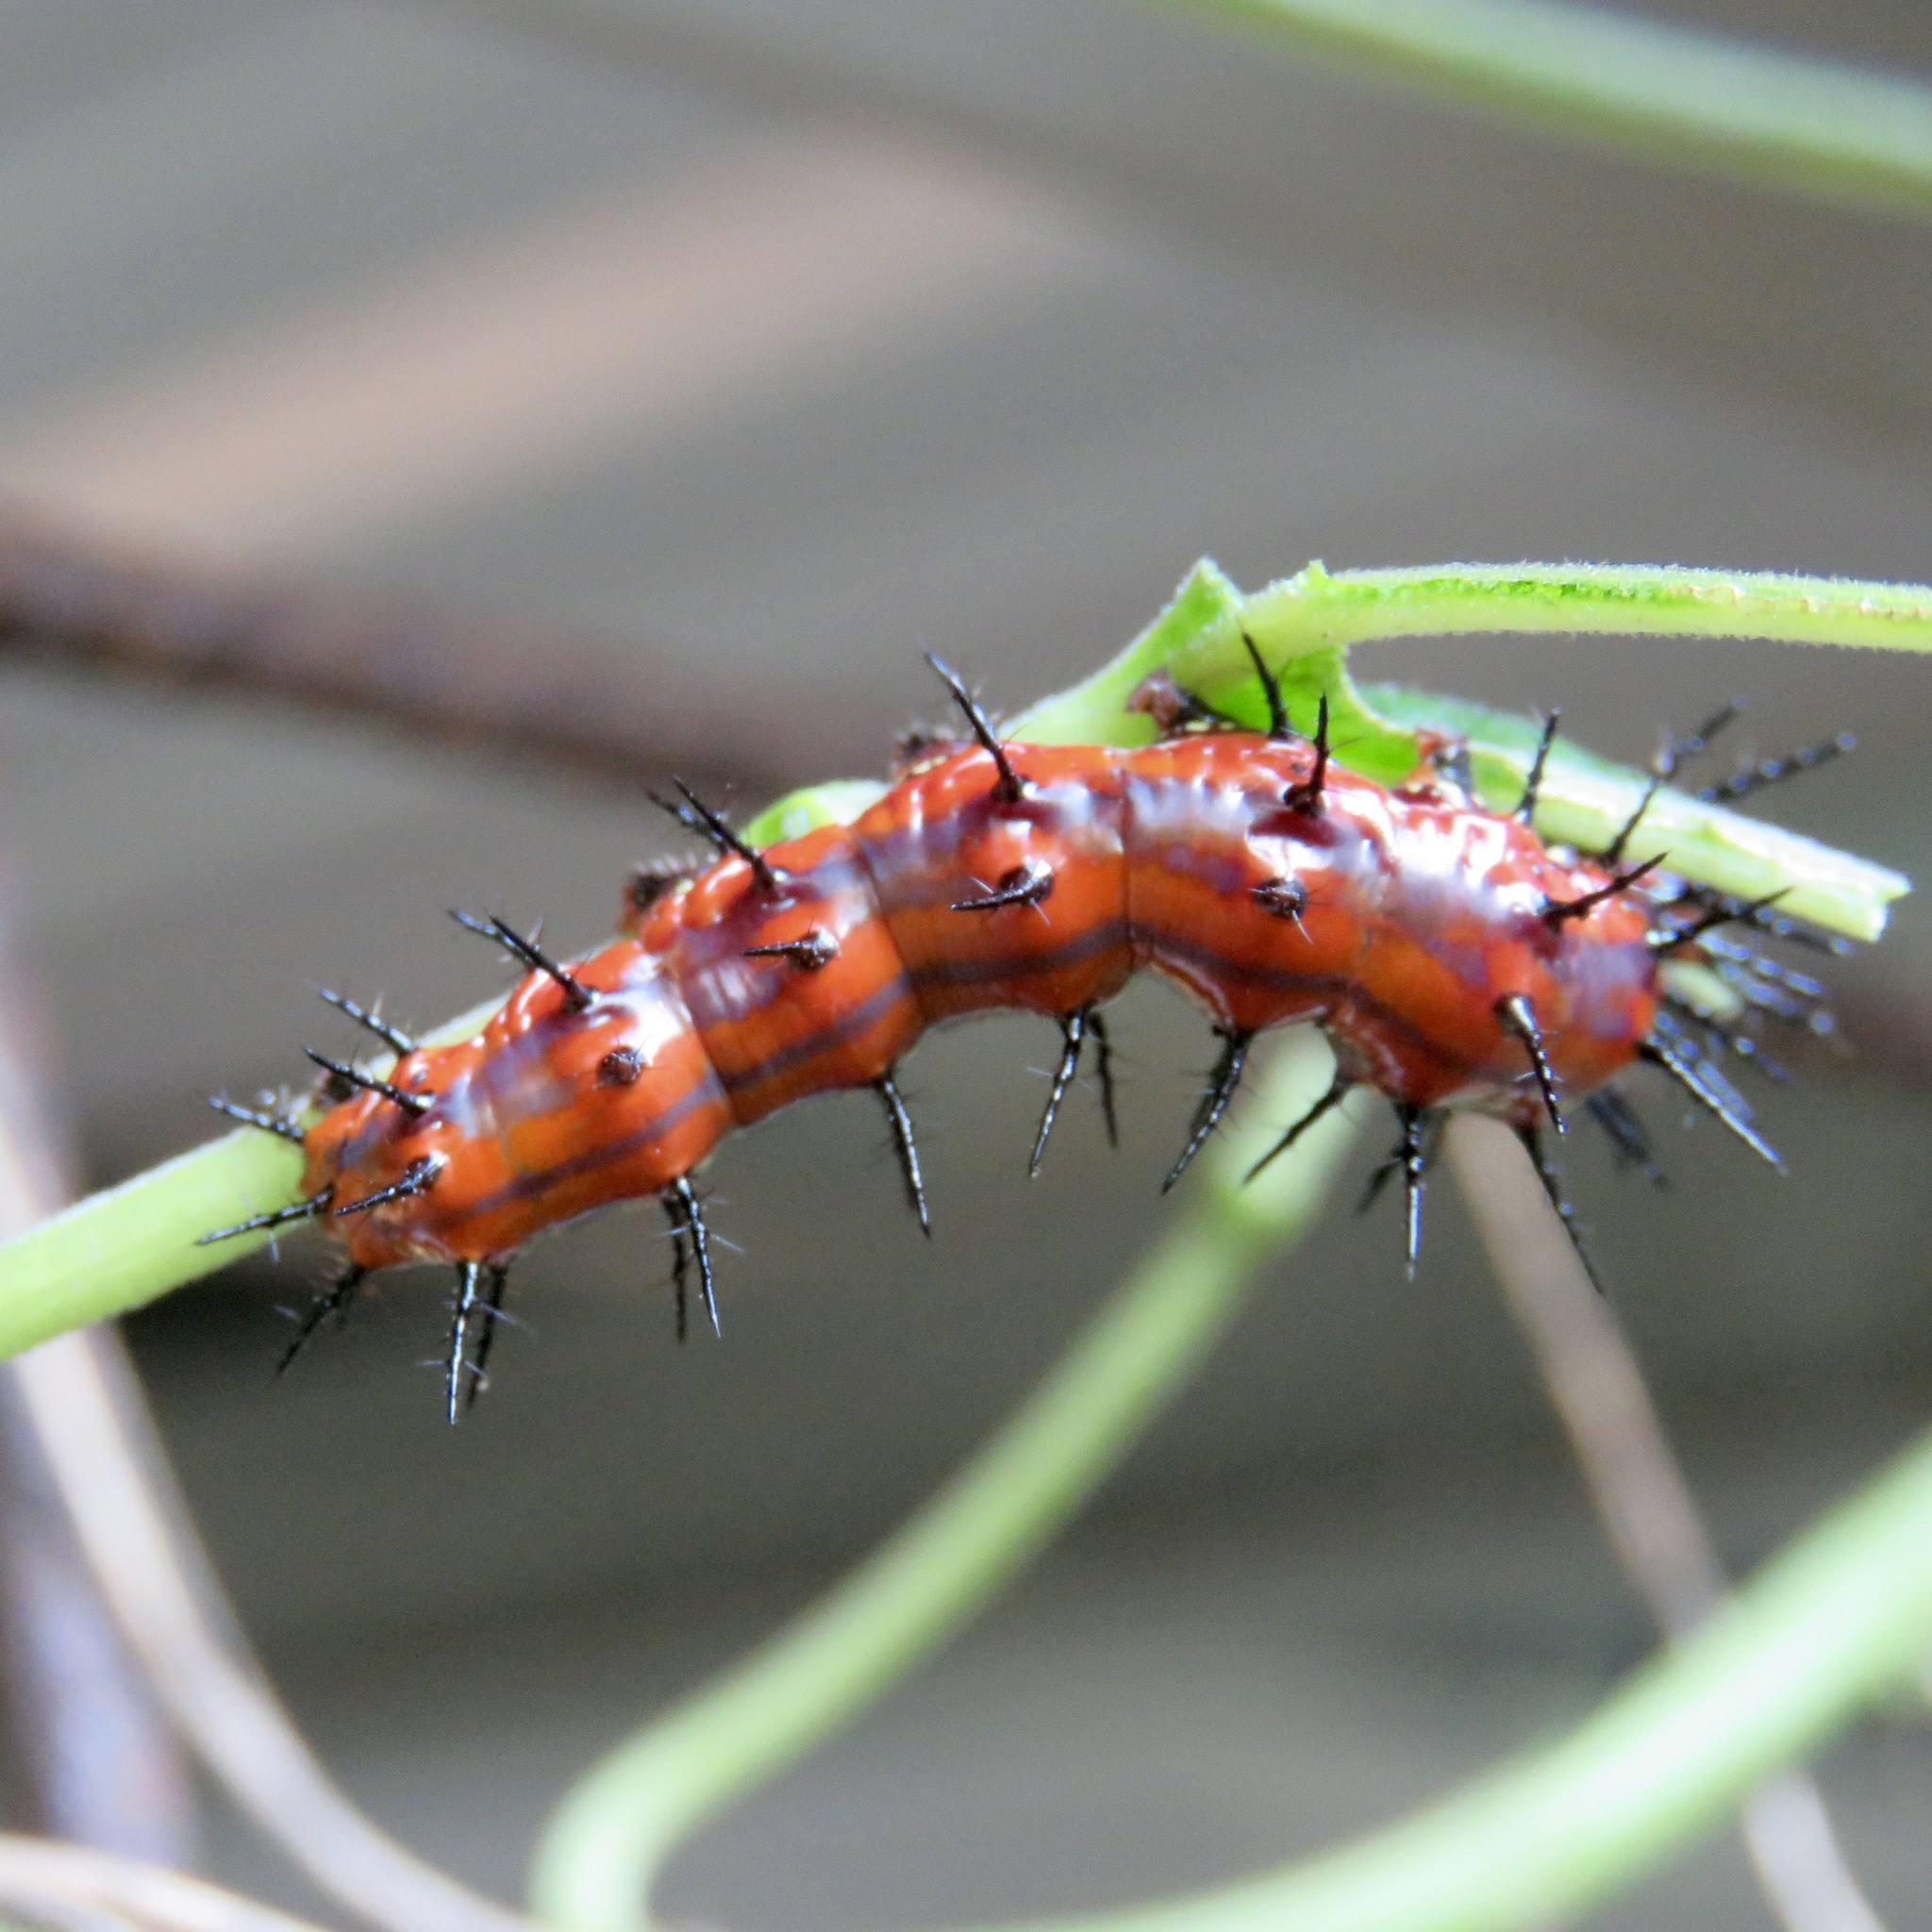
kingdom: Animalia
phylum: Arthropoda
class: Insecta
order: Lepidoptera
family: Nymphalidae
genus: Dione
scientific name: Dione vanillae
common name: Gulf fritillary
